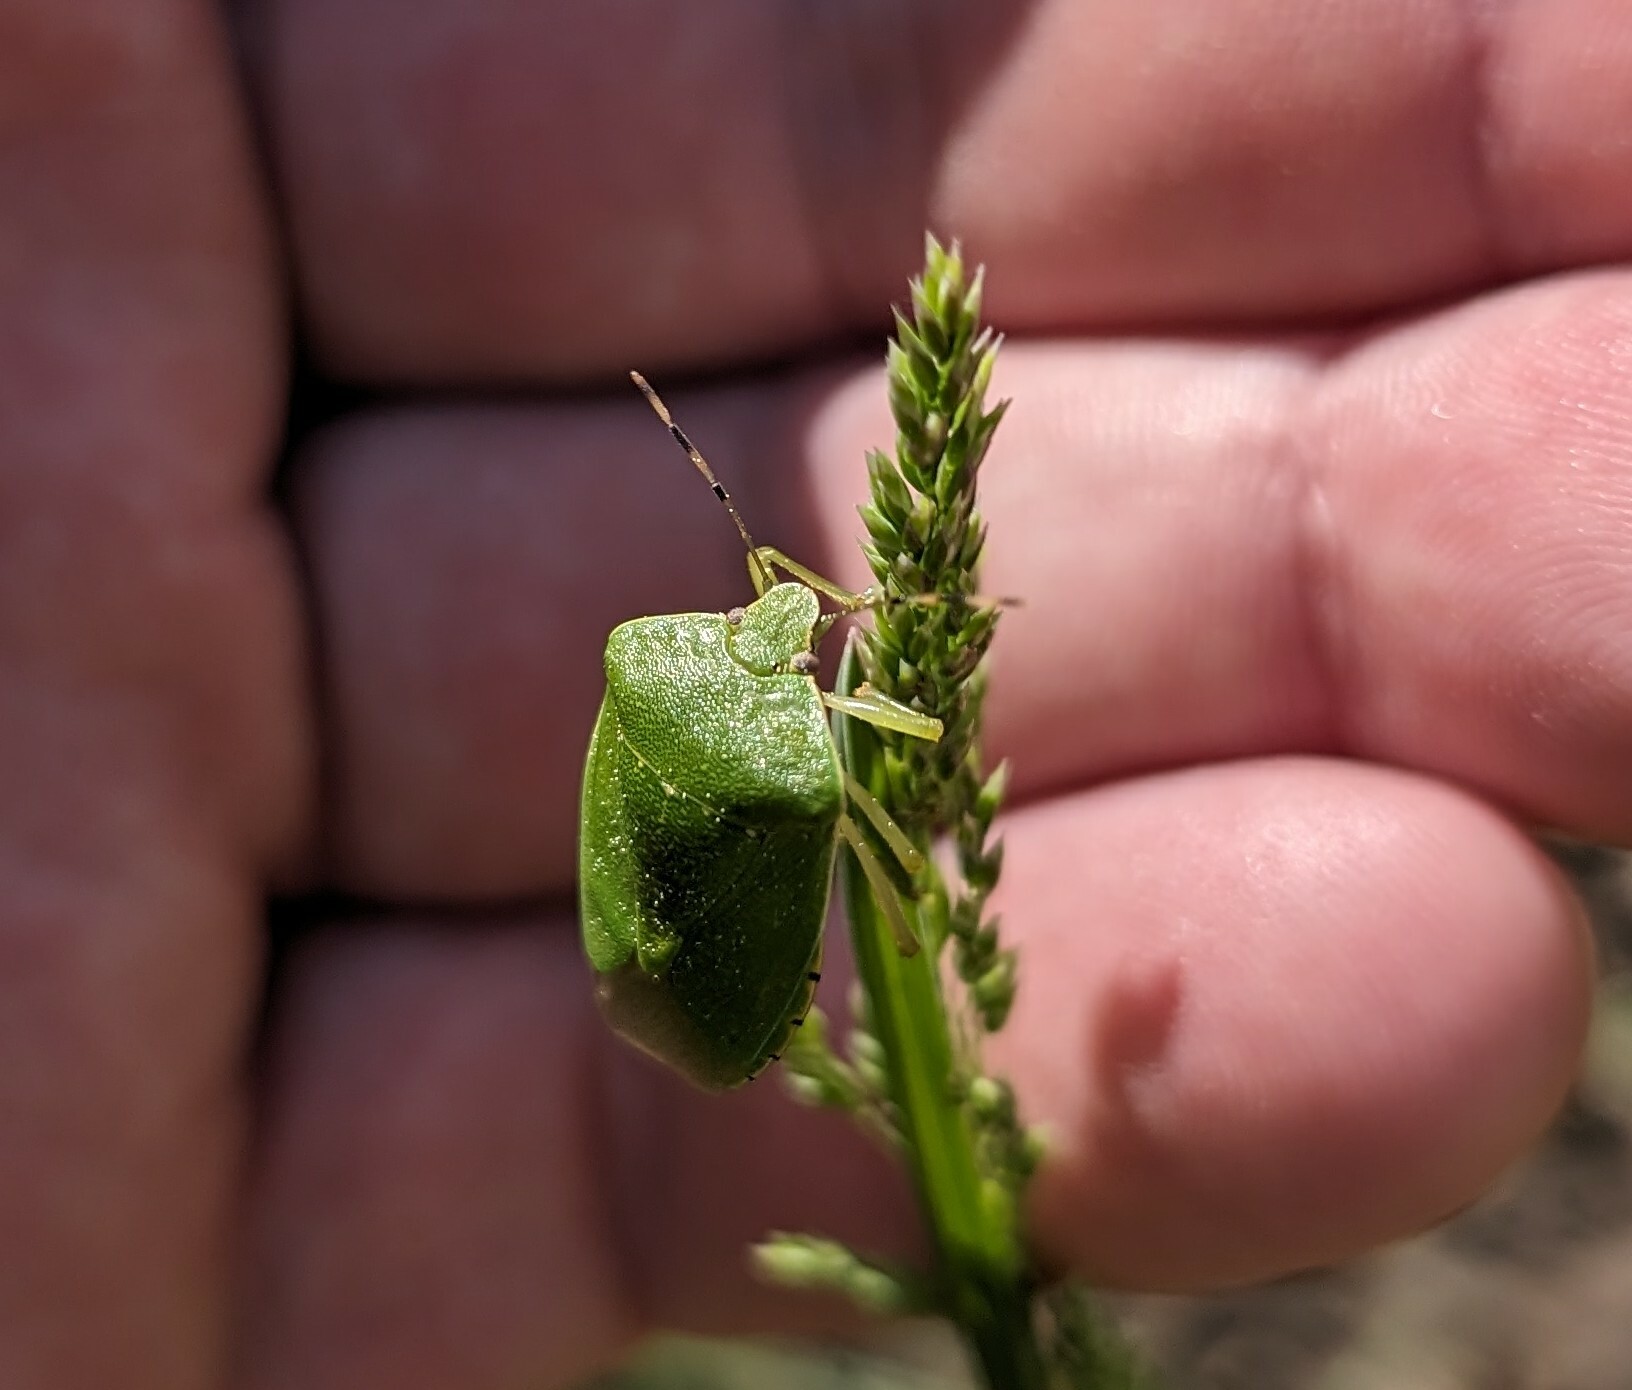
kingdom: Animalia
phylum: Arthropoda
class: Insecta
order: Hemiptera
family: Pentatomidae
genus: Chinavia
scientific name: Chinavia hilaris
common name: Green stink bug
